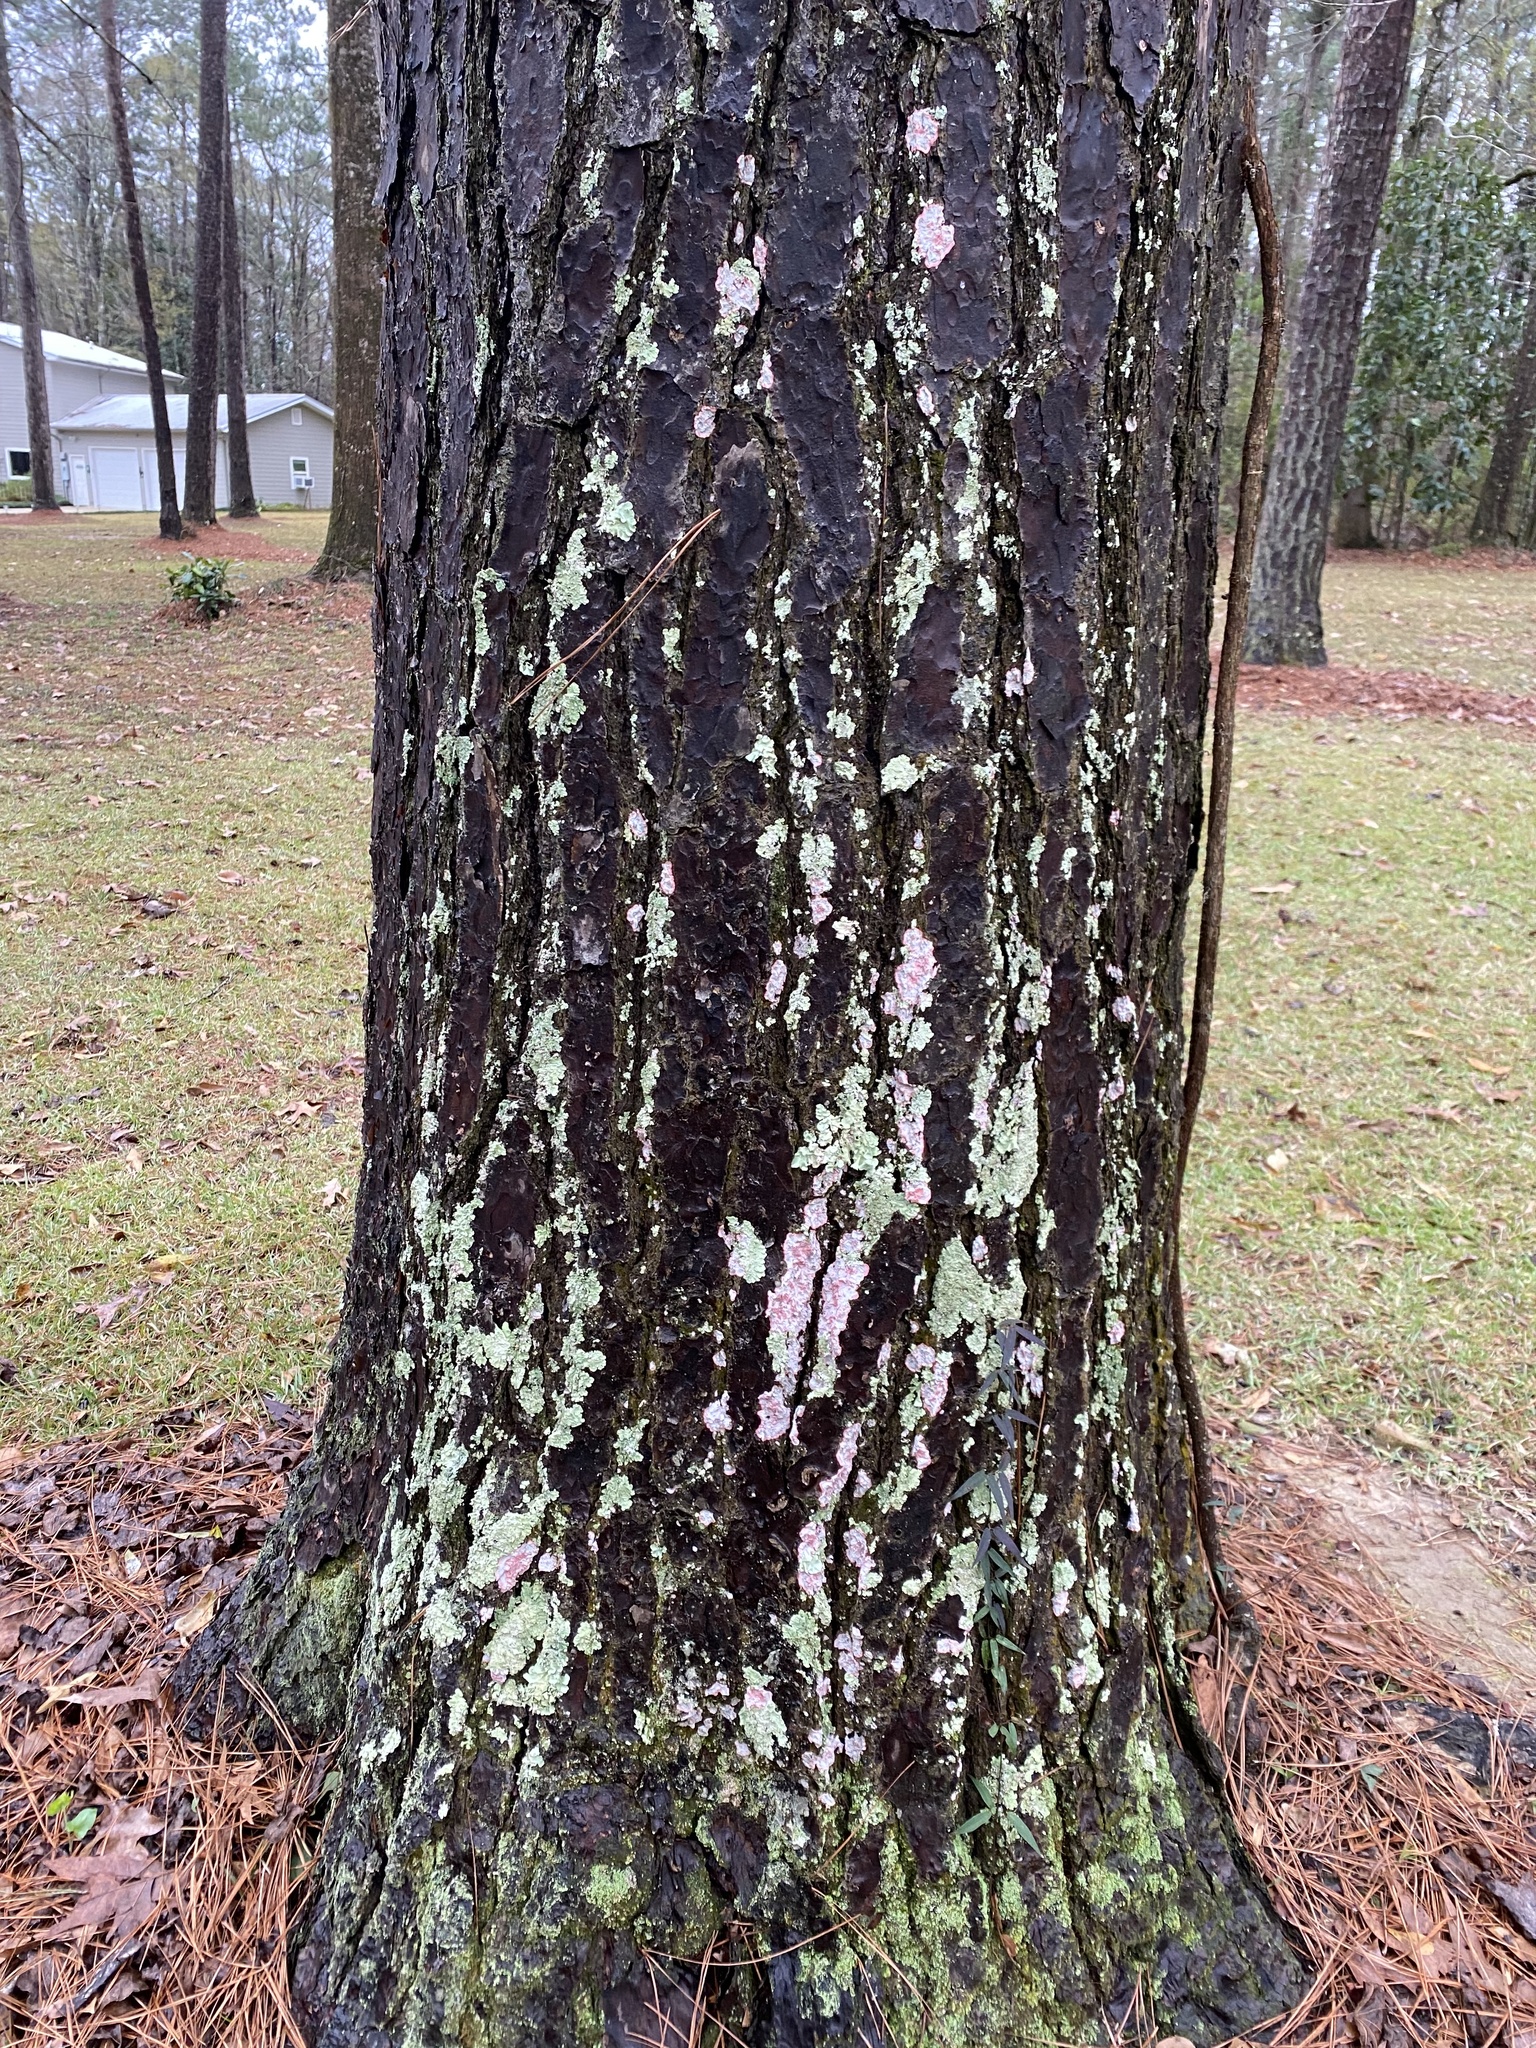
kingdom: Fungi
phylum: Ascomycota
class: Arthoniomycetes
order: Arthoniales
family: Arthoniaceae
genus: Herpothallon
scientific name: Herpothallon rubrocinctum
